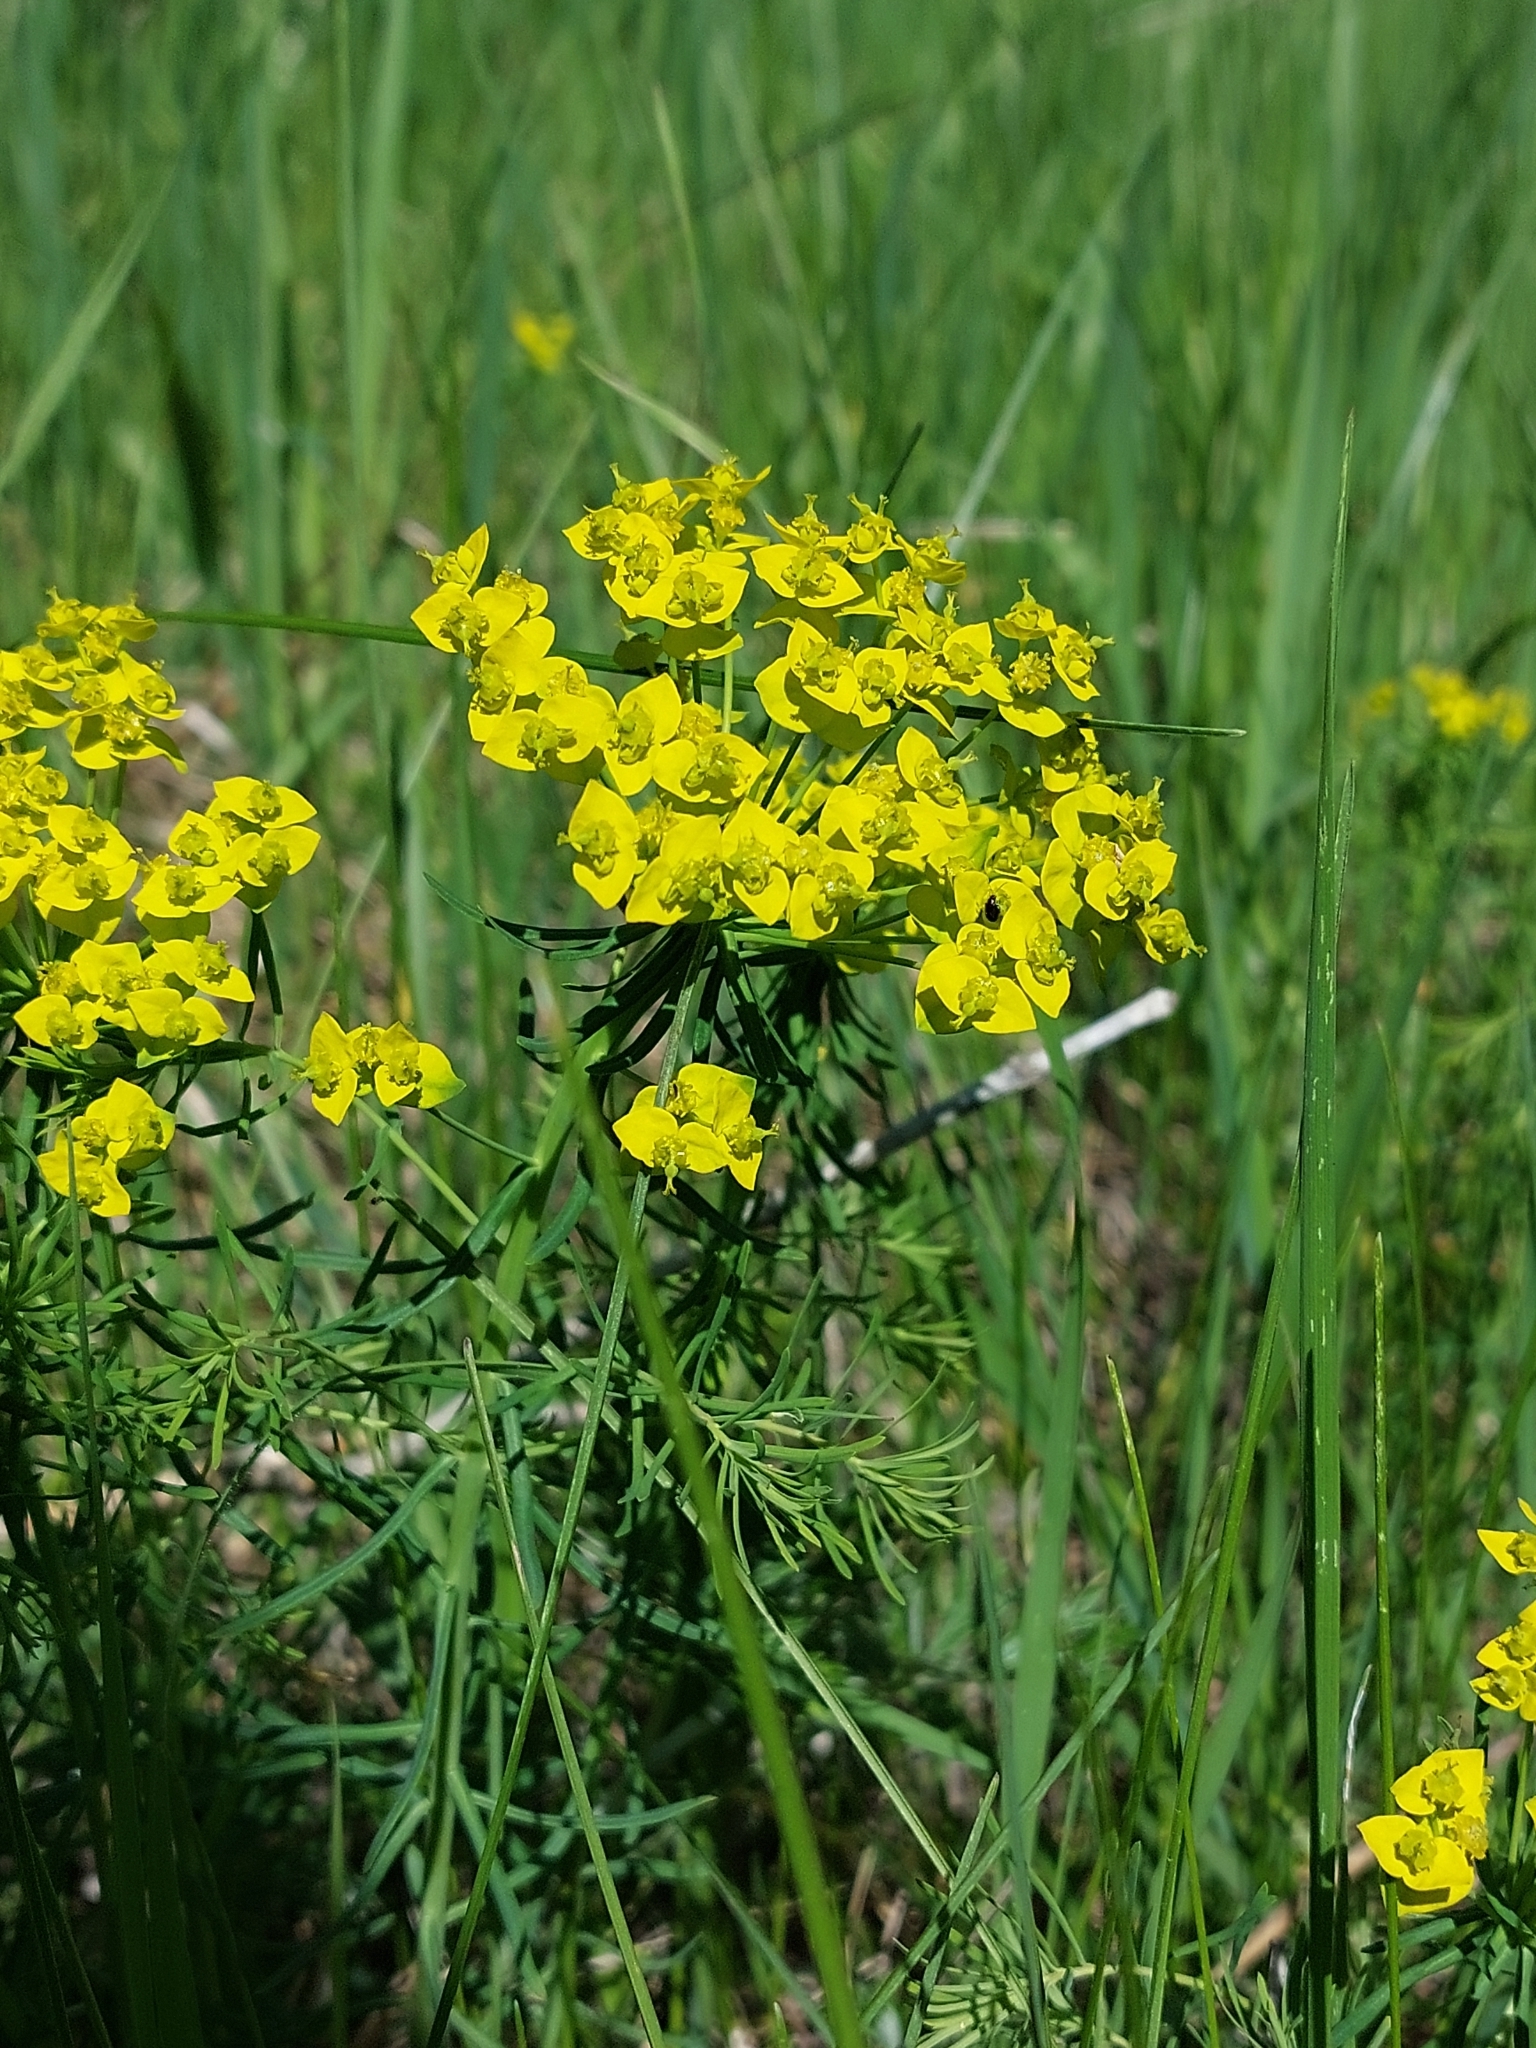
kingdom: Plantae
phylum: Tracheophyta
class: Magnoliopsida
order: Malpighiales
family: Euphorbiaceae
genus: Euphorbia
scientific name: Euphorbia cyparissias
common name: Cypress spurge
